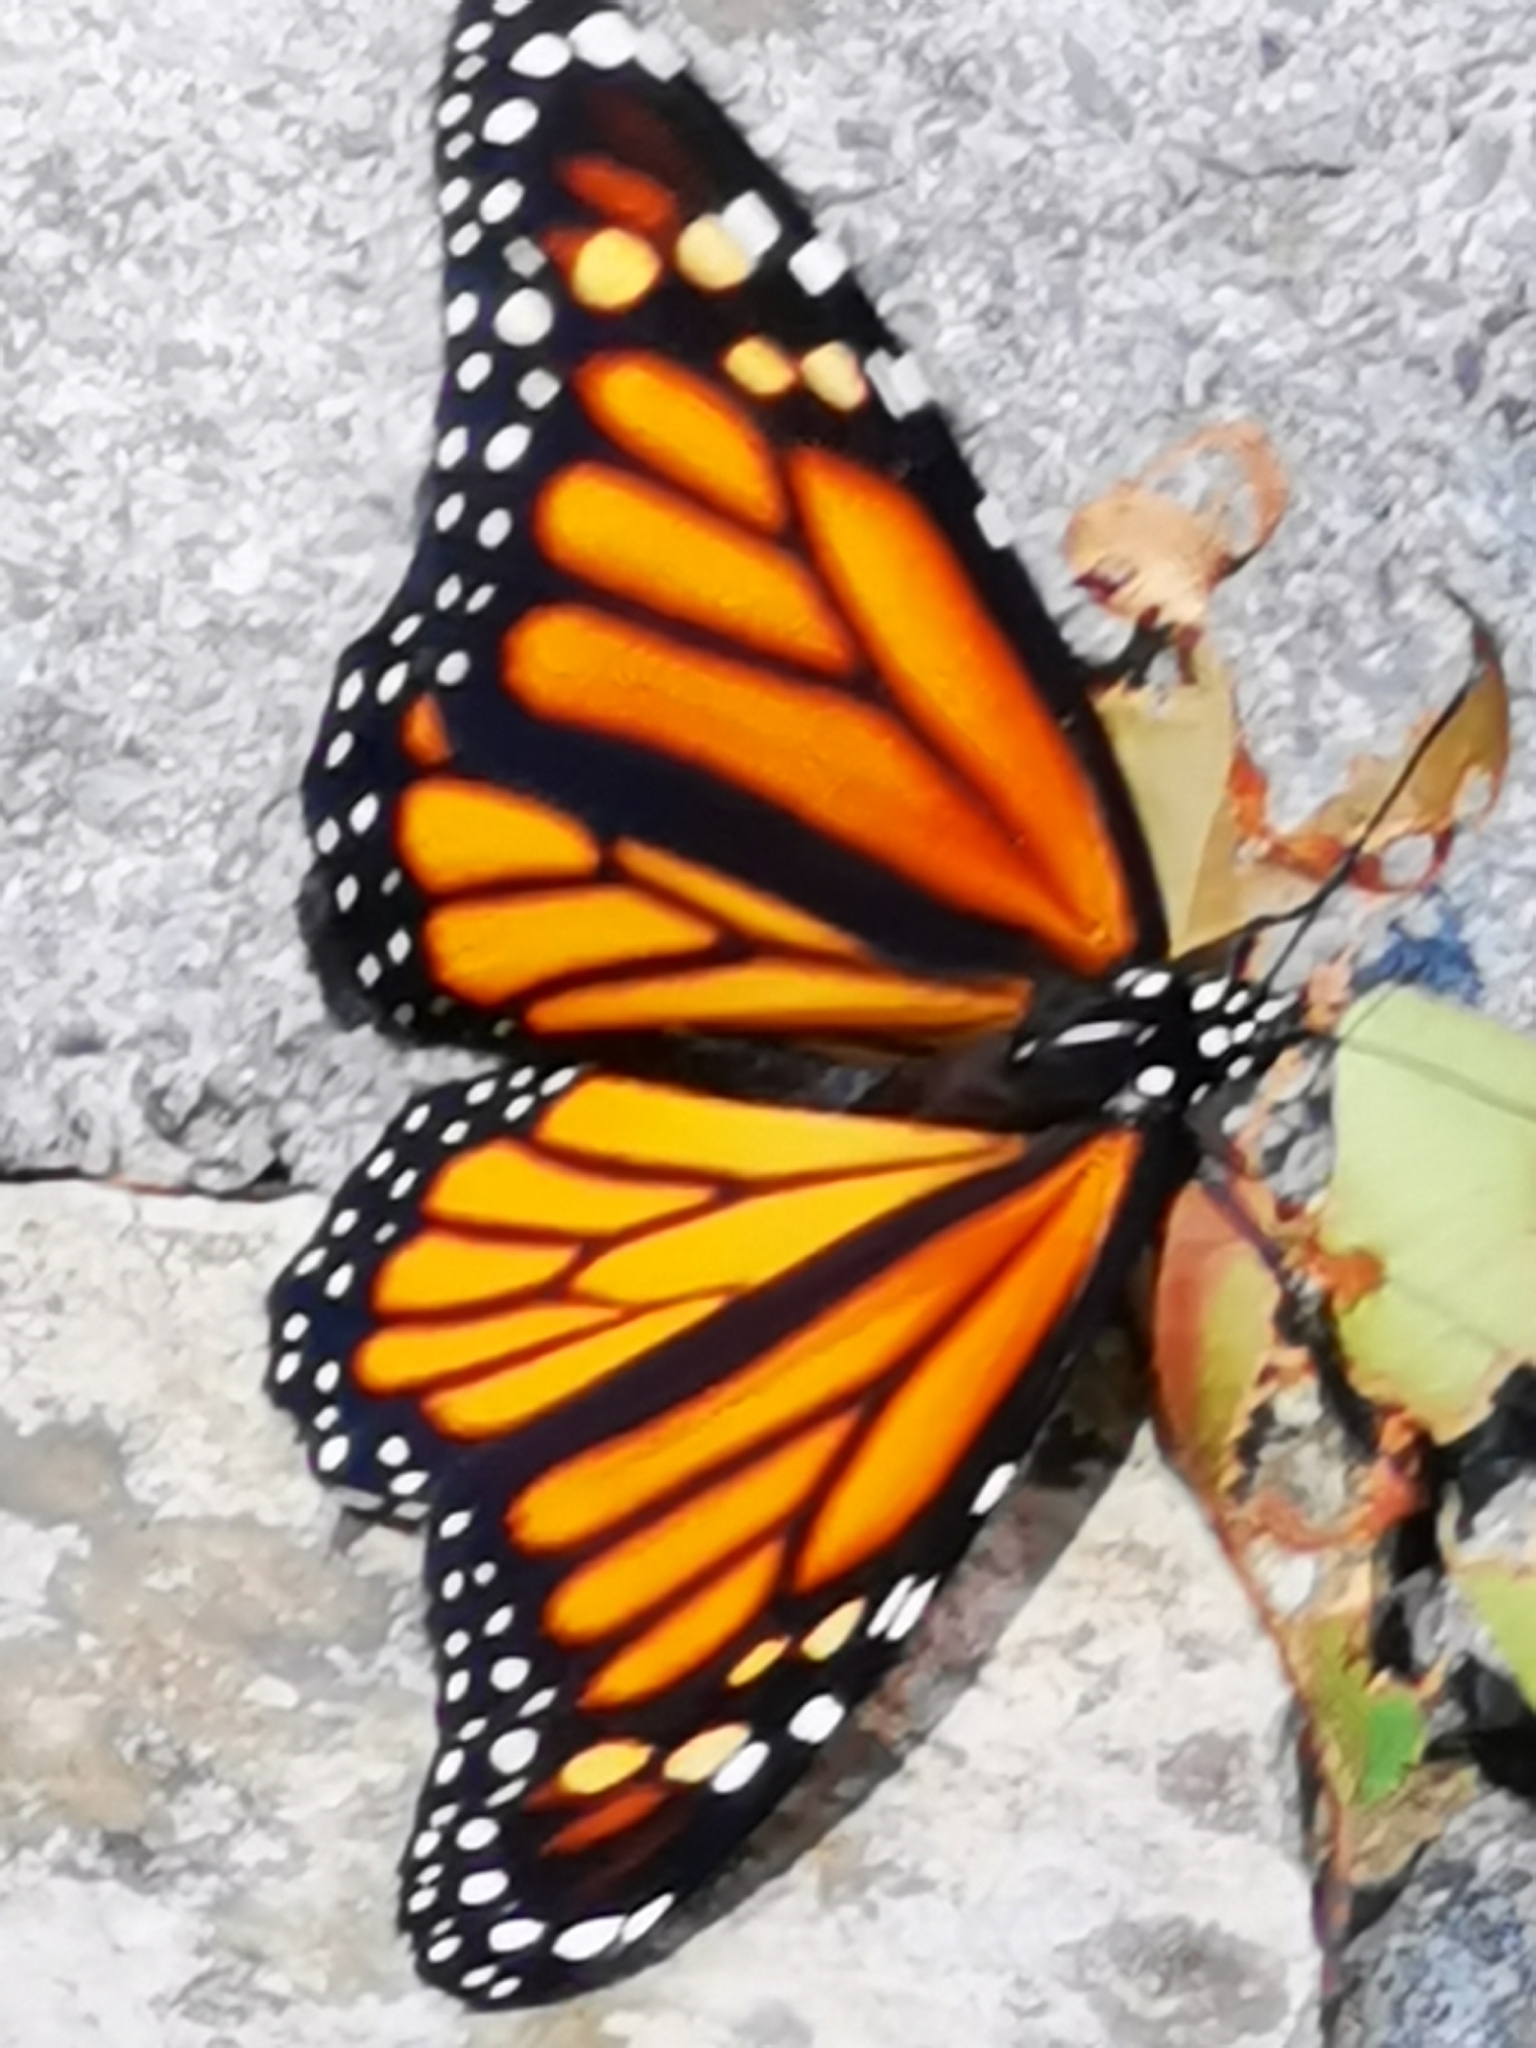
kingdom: Animalia
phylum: Arthropoda
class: Insecta
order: Lepidoptera
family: Nymphalidae
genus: Danaus
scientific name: Danaus plexippus
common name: Monarch
